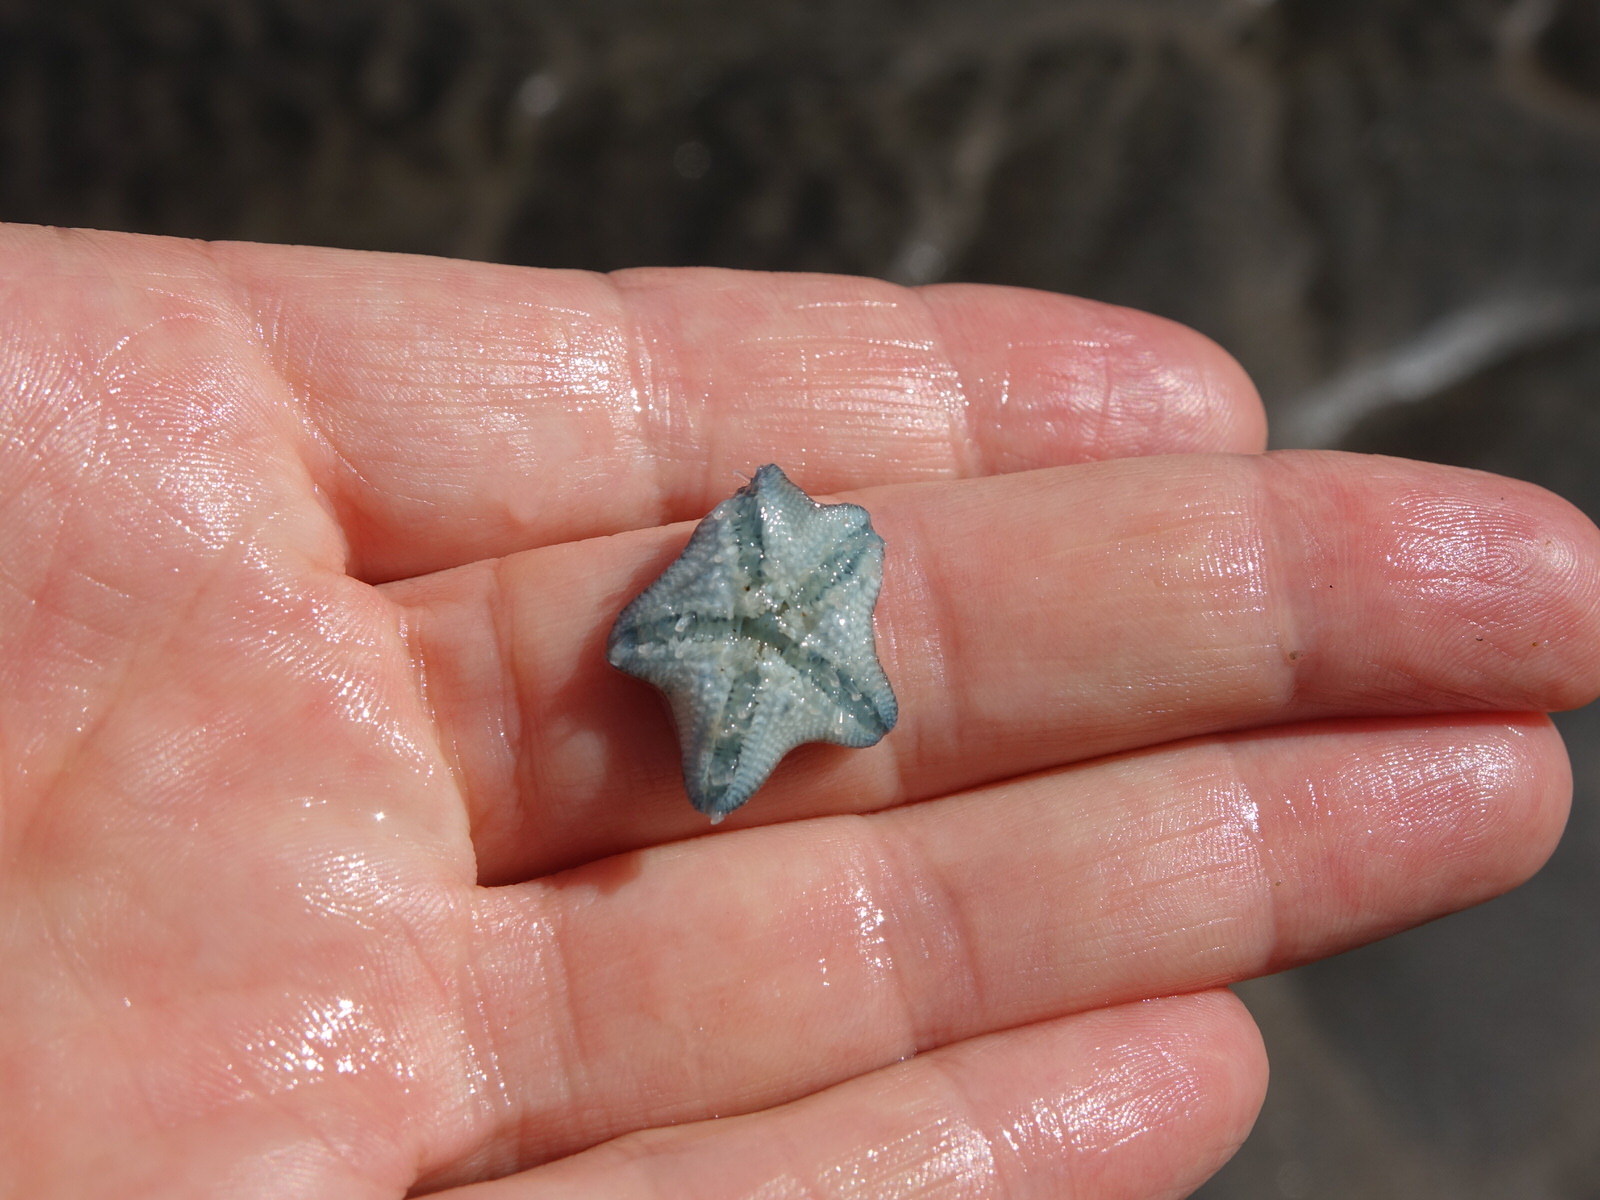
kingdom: Animalia
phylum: Echinodermata
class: Asteroidea
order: Valvatida
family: Asterinidae
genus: Patiriella
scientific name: Patiriella regularis
